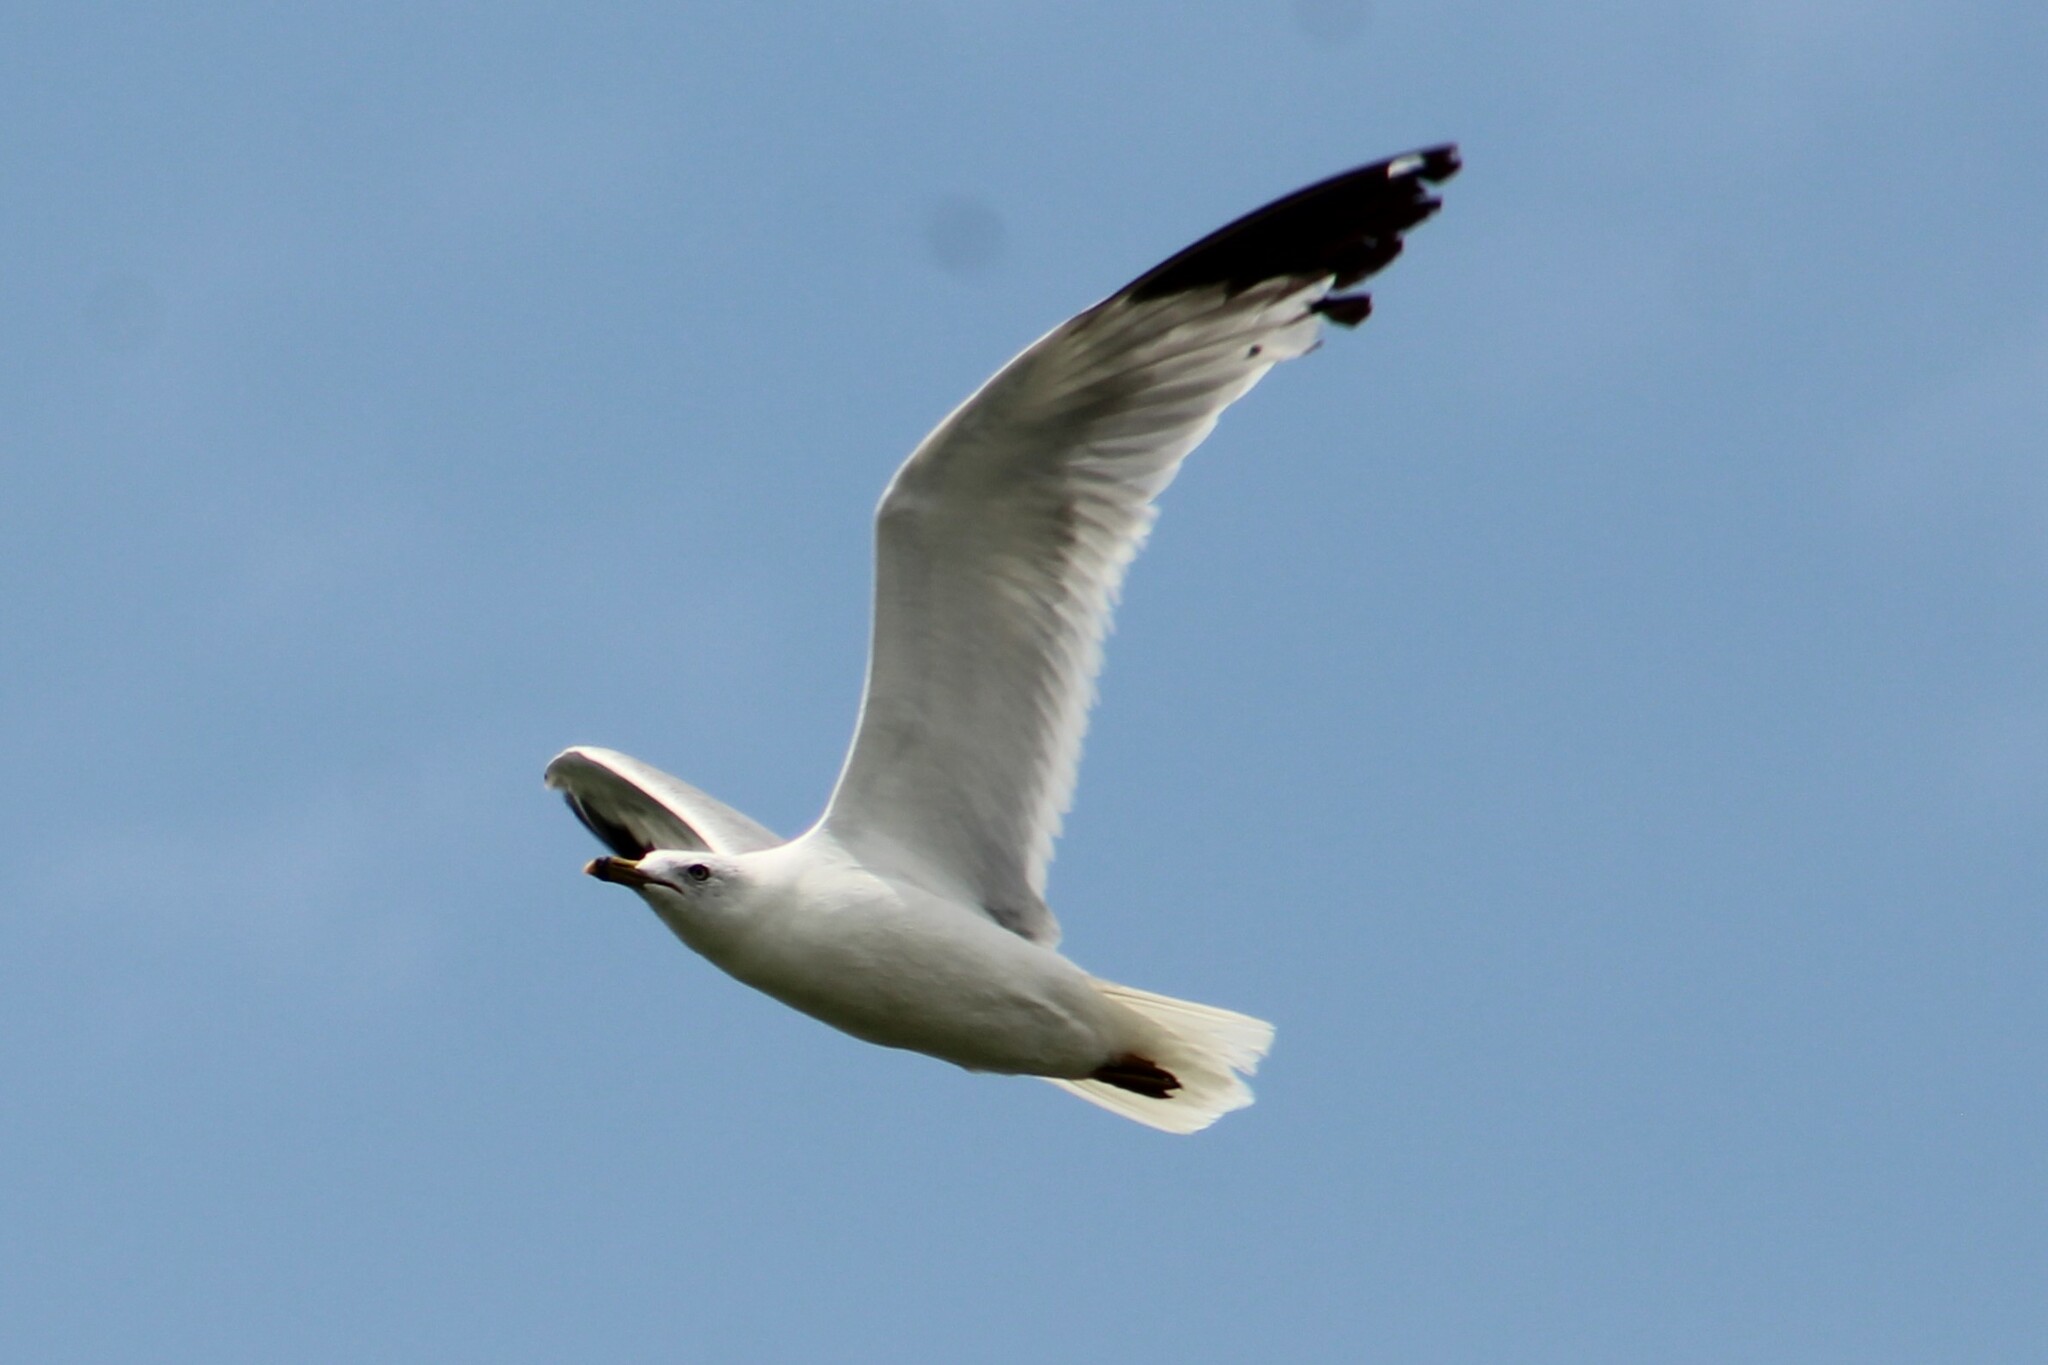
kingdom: Animalia
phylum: Chordata
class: Aves
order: Charadriiformes
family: Laridae
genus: Larus
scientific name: Larus delawarensis
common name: Ring-billed gull
